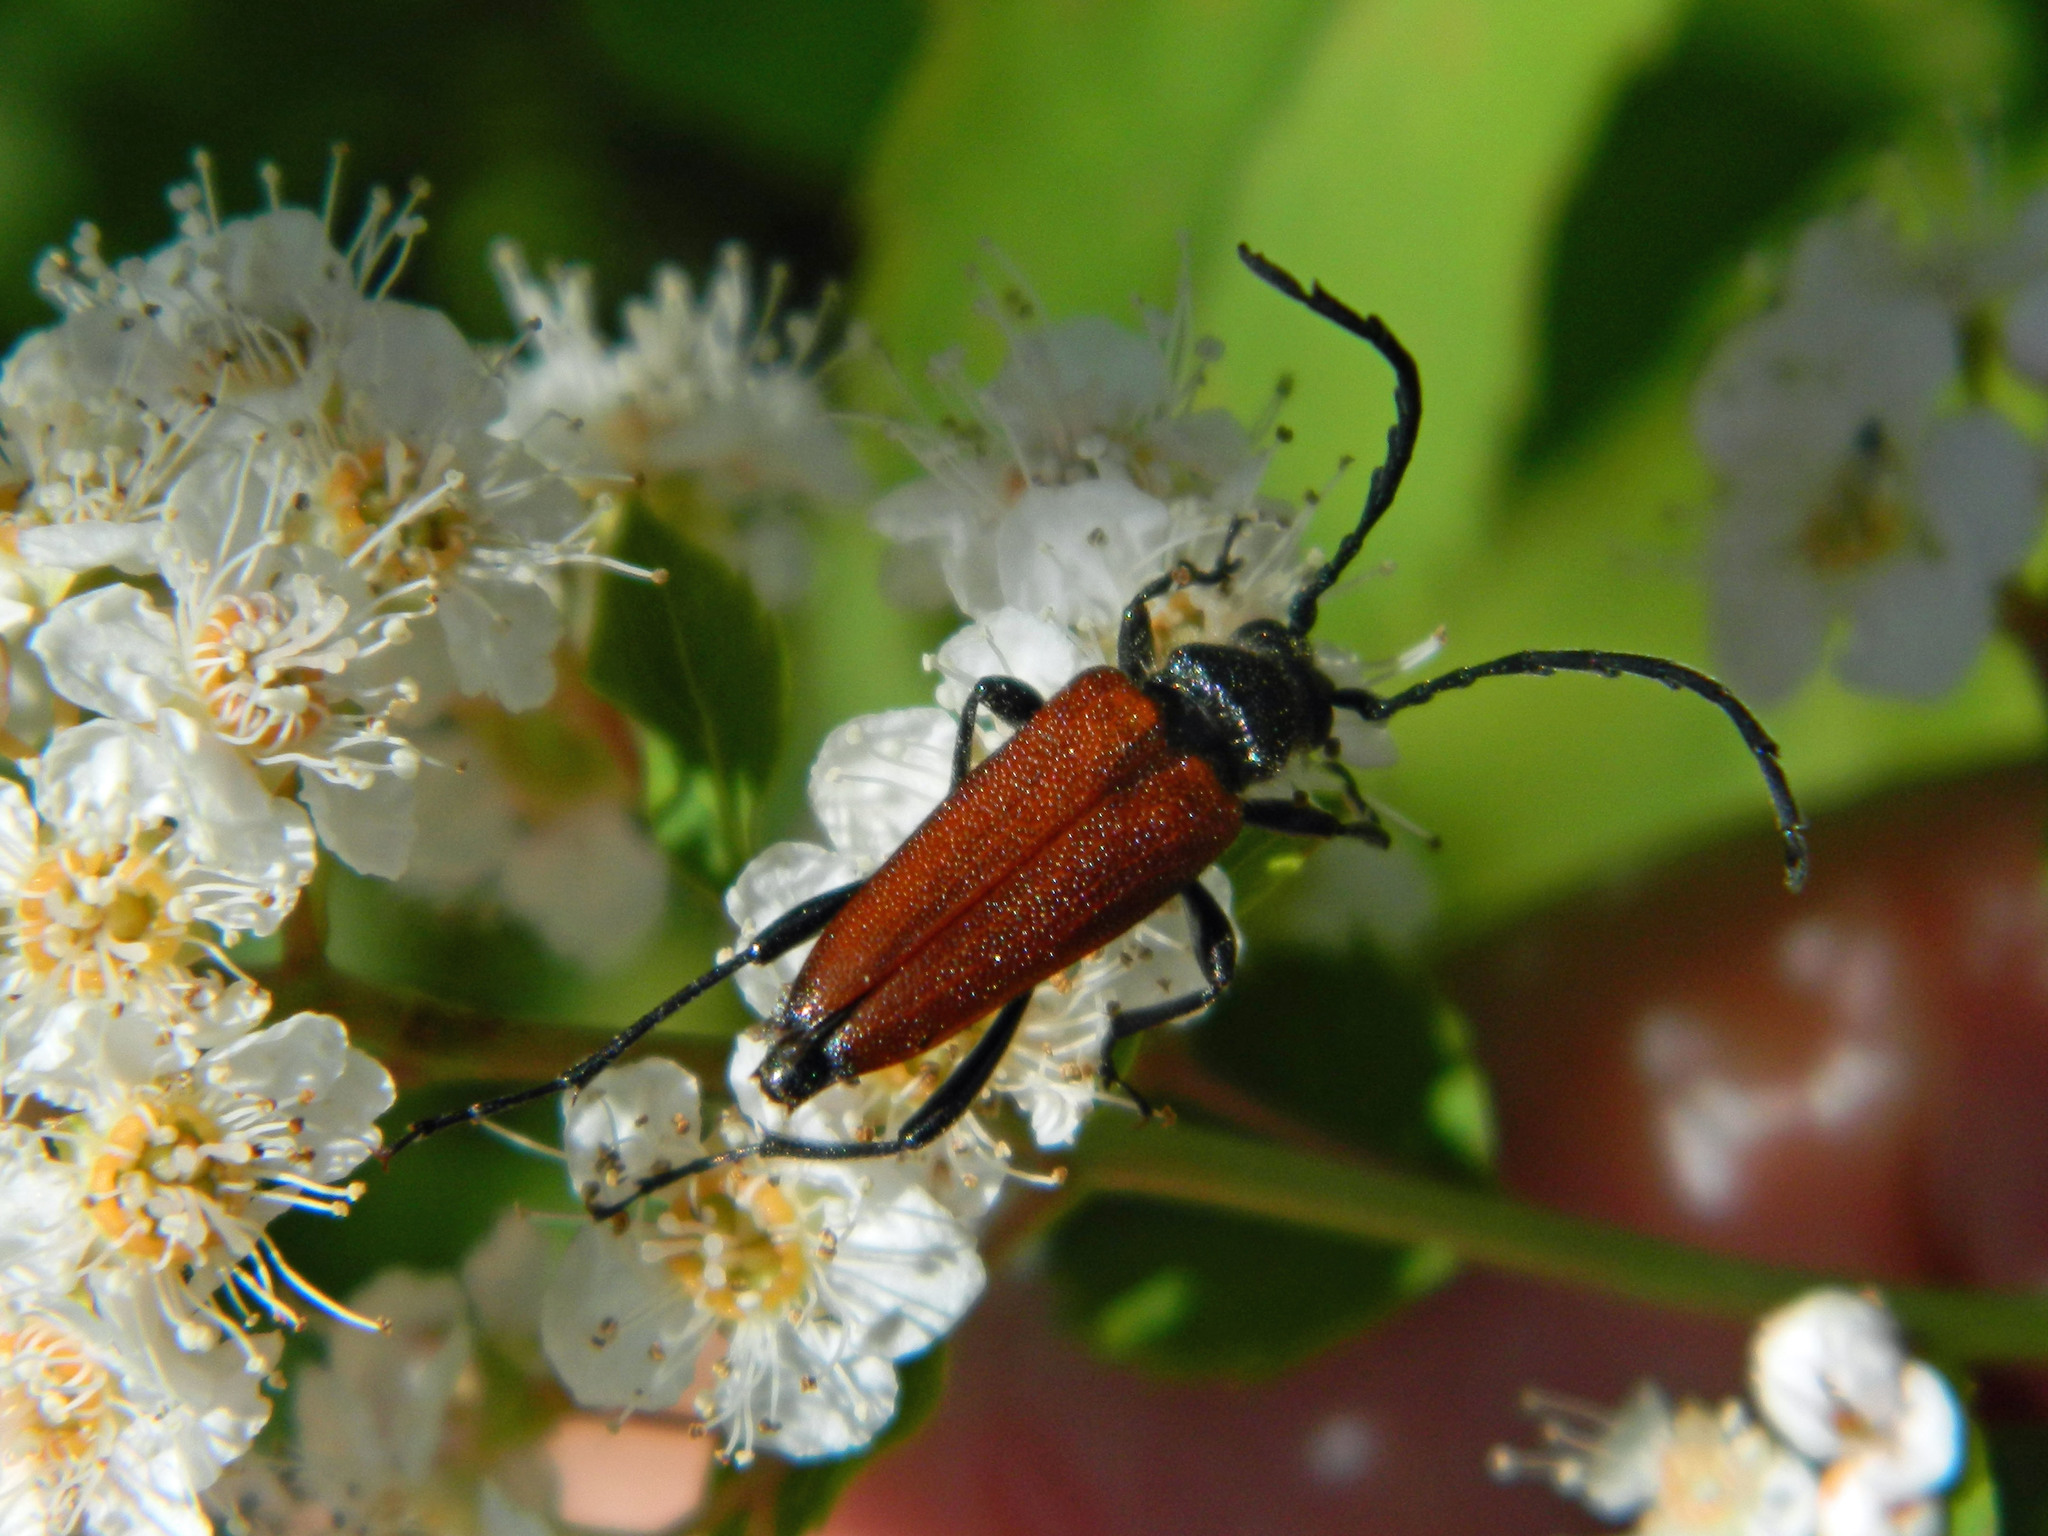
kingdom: Animalia
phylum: Arthropoda
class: Insecta
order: Coleoptera
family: Cerambycidae
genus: Stictoleptura
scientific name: Stictoleptura canadensis
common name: Red-shouldered pine borer
